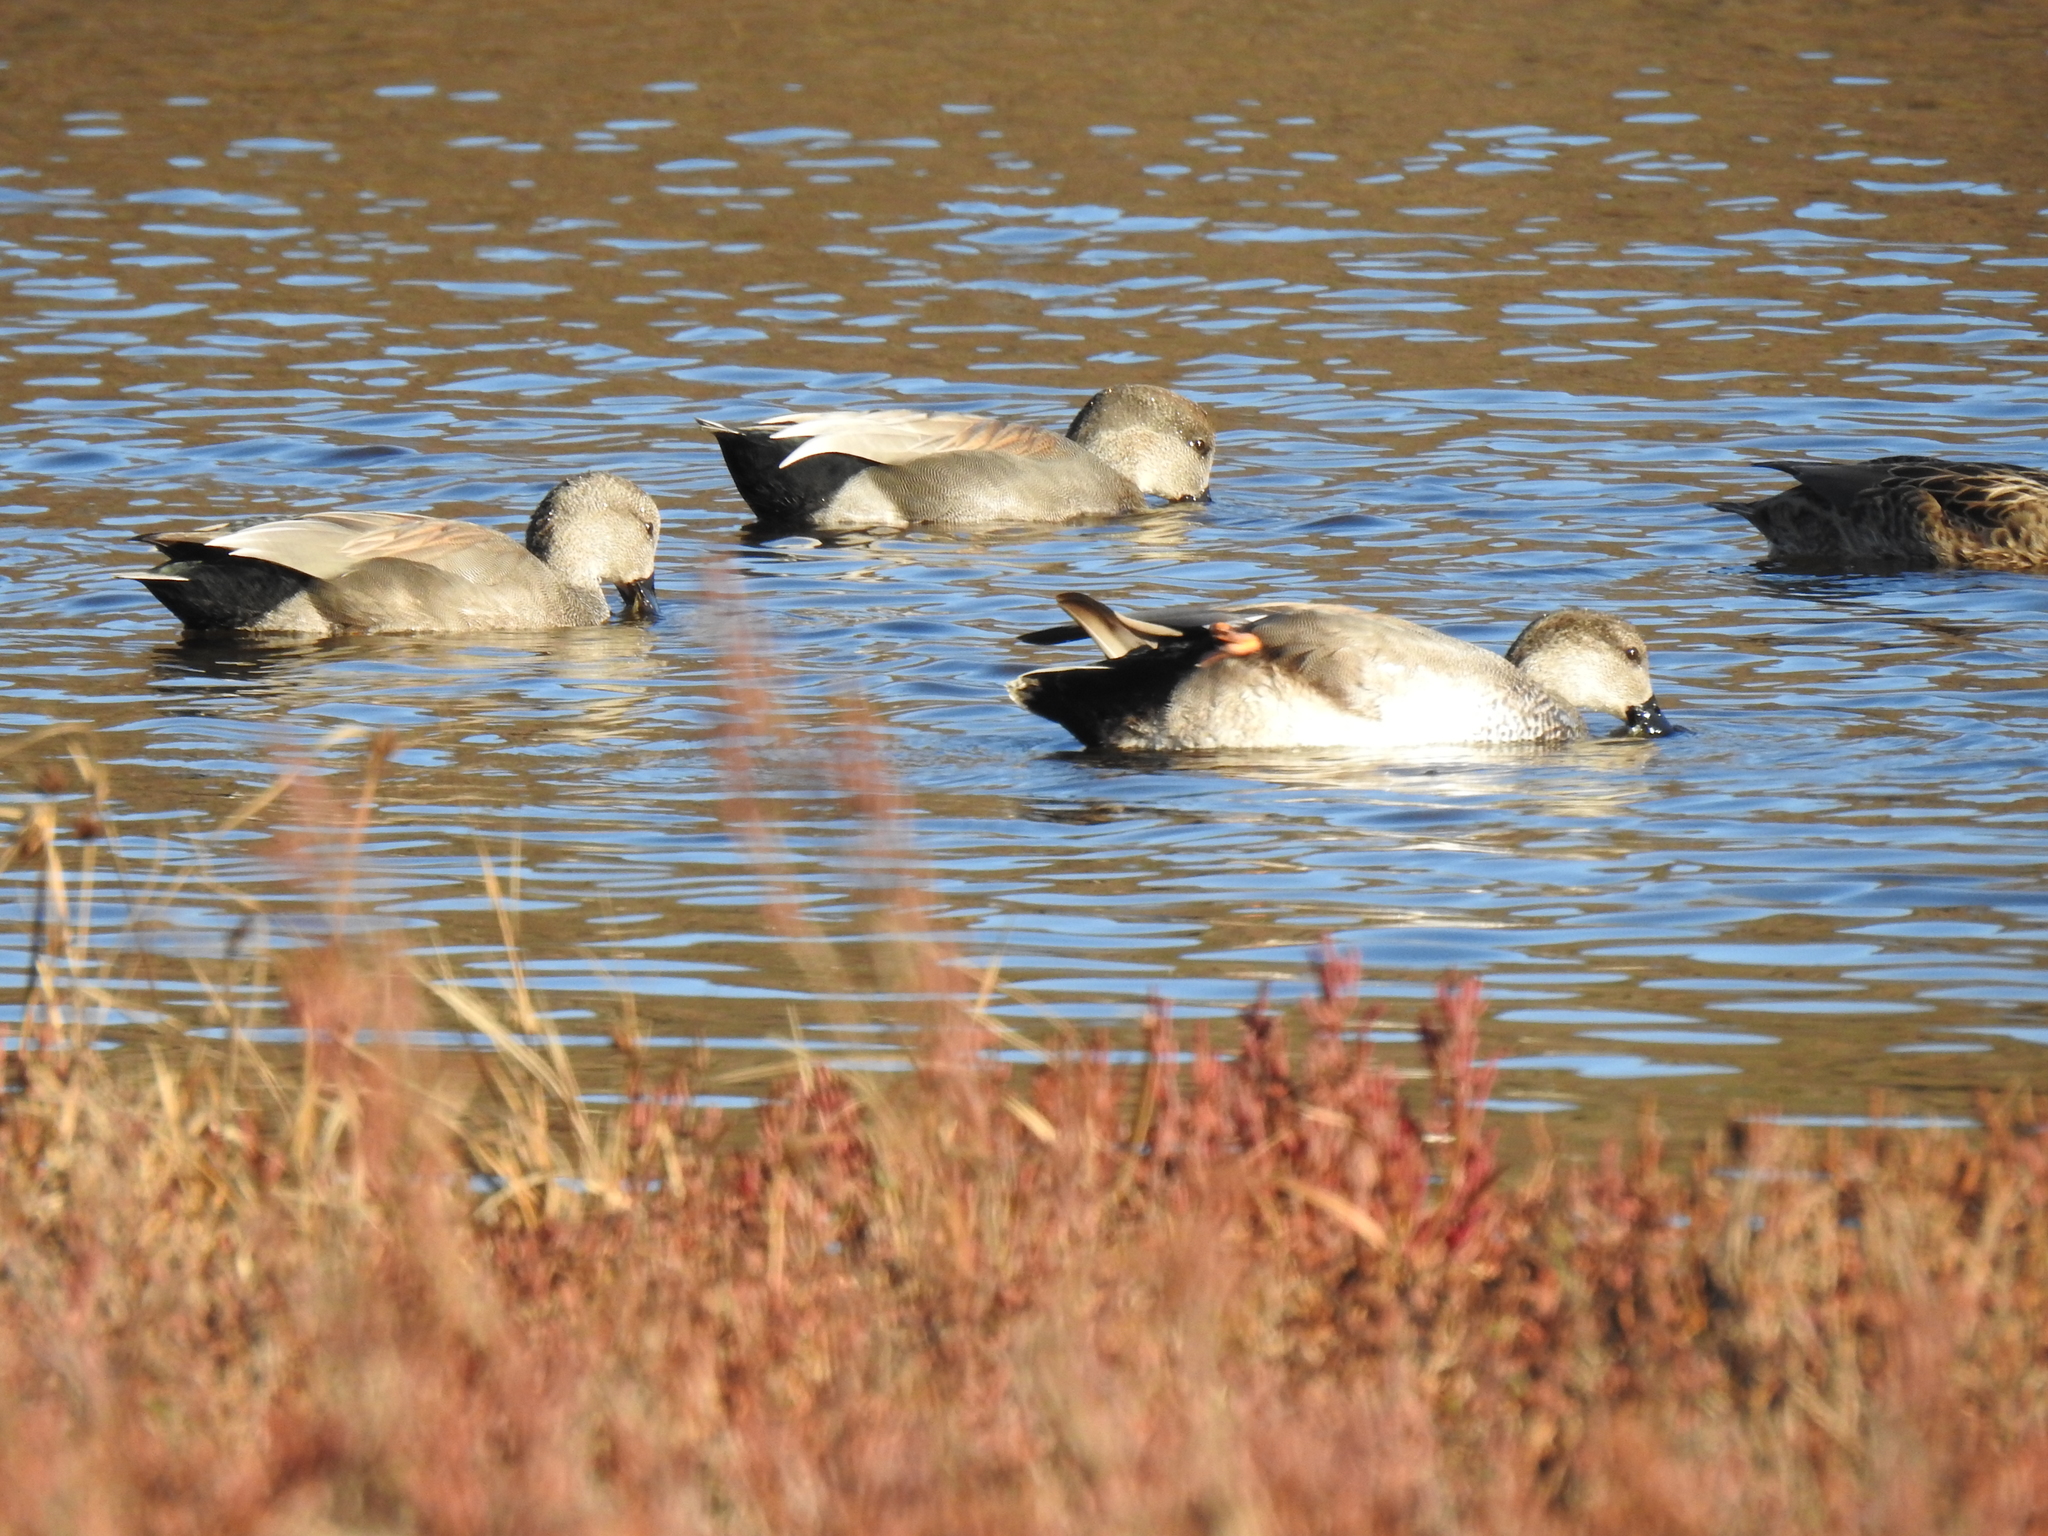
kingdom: Animalia
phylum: Chordata
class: Aves
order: Anseriformes
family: Anatidae
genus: Mareca
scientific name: Mareca strepera
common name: Gadwall
